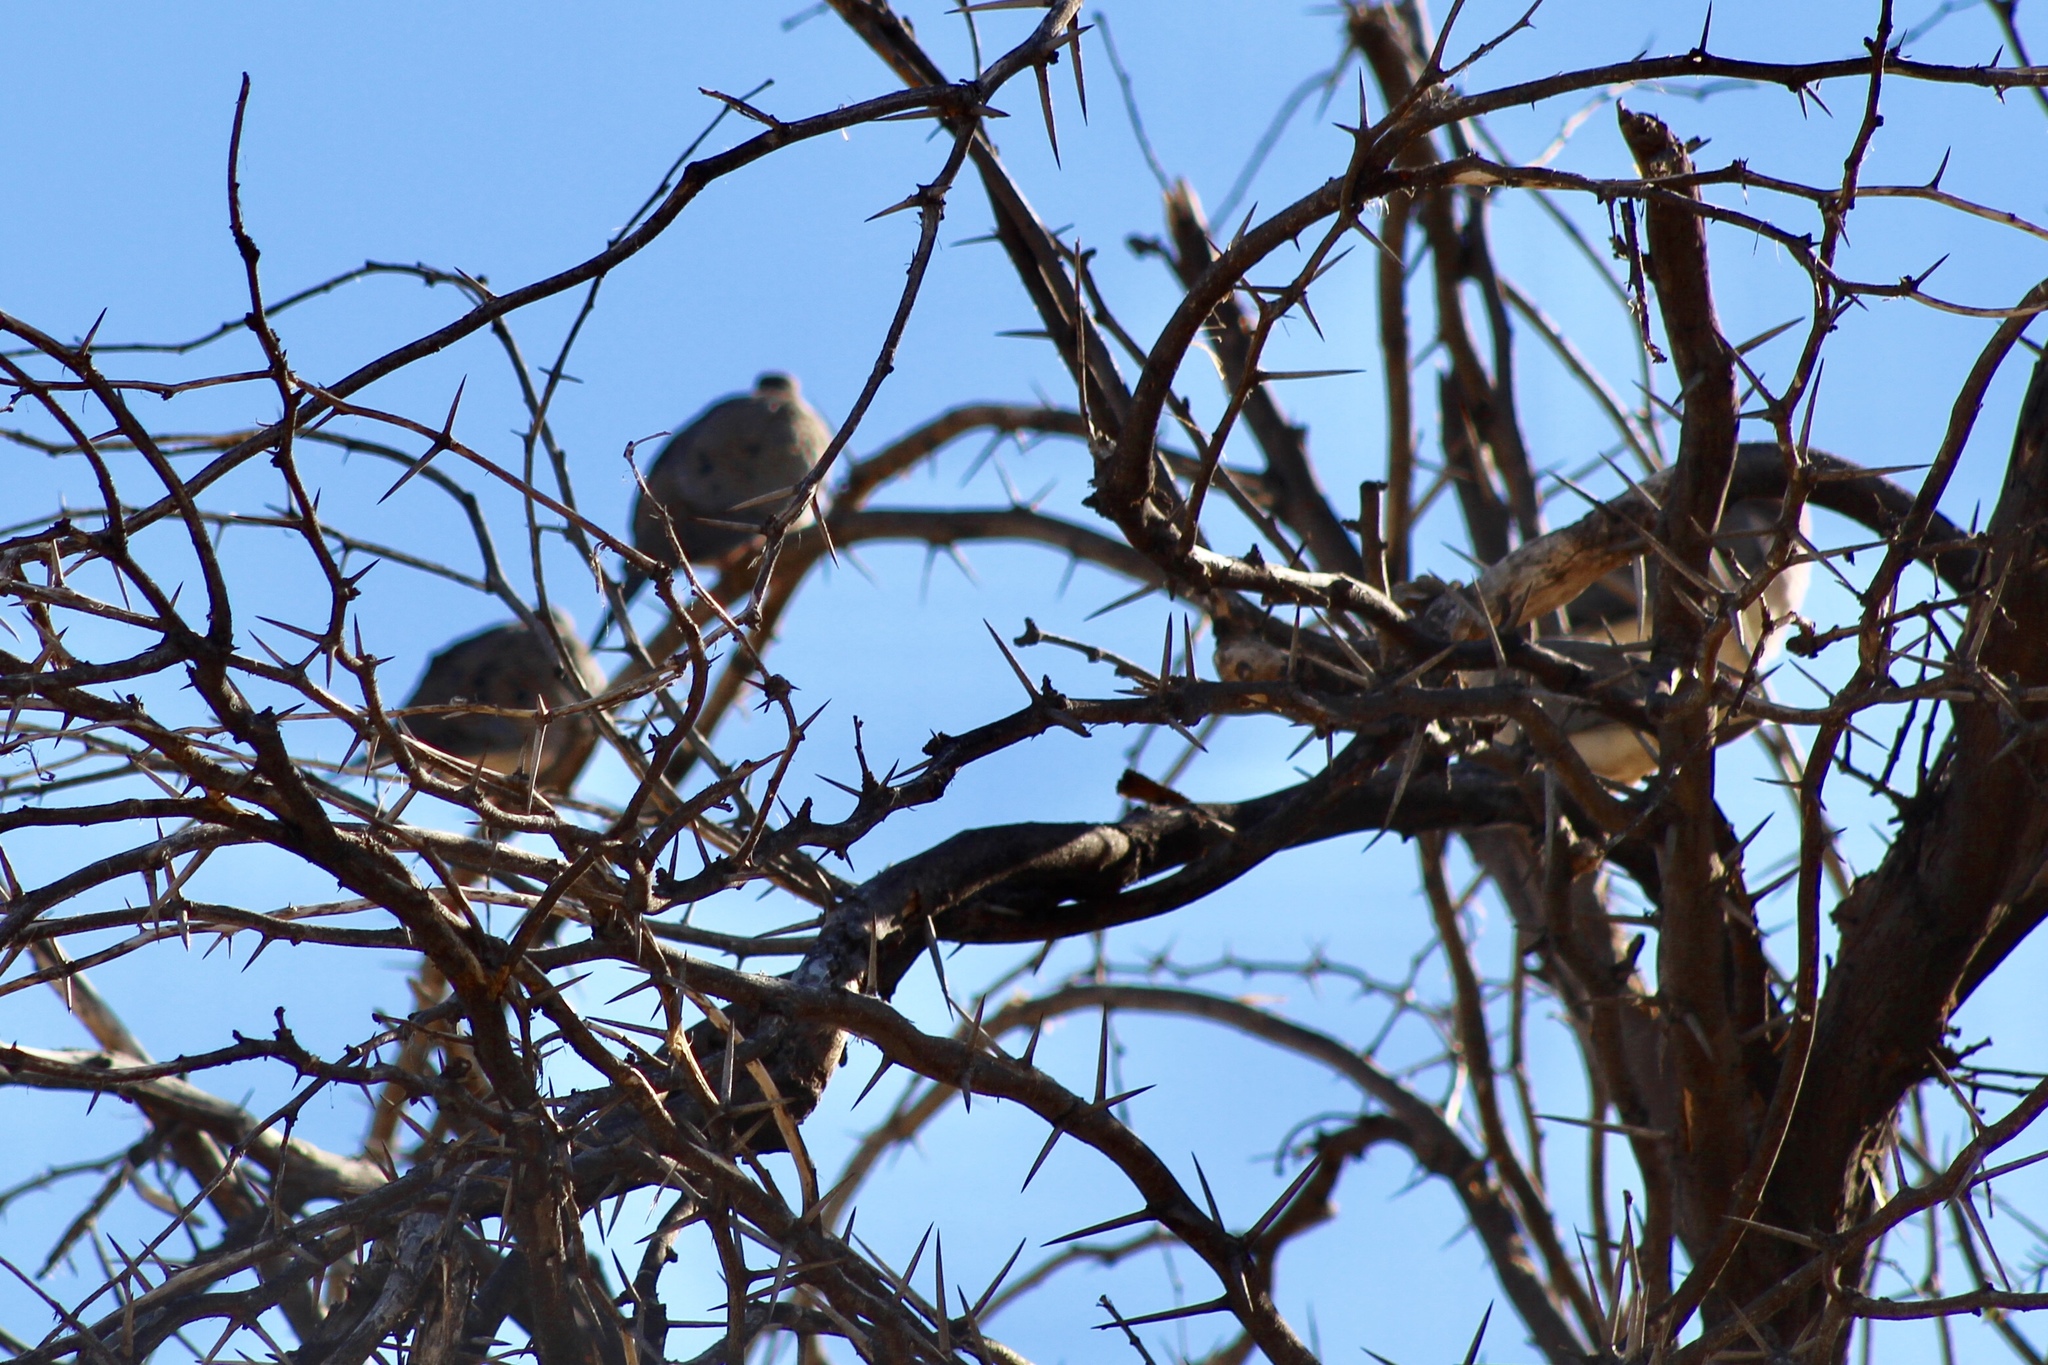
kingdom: Animalia
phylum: Chordata
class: Aves
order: Columbiformes
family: Columbidae
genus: Zenaida
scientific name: Zenaida macroura
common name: Mourning dove
